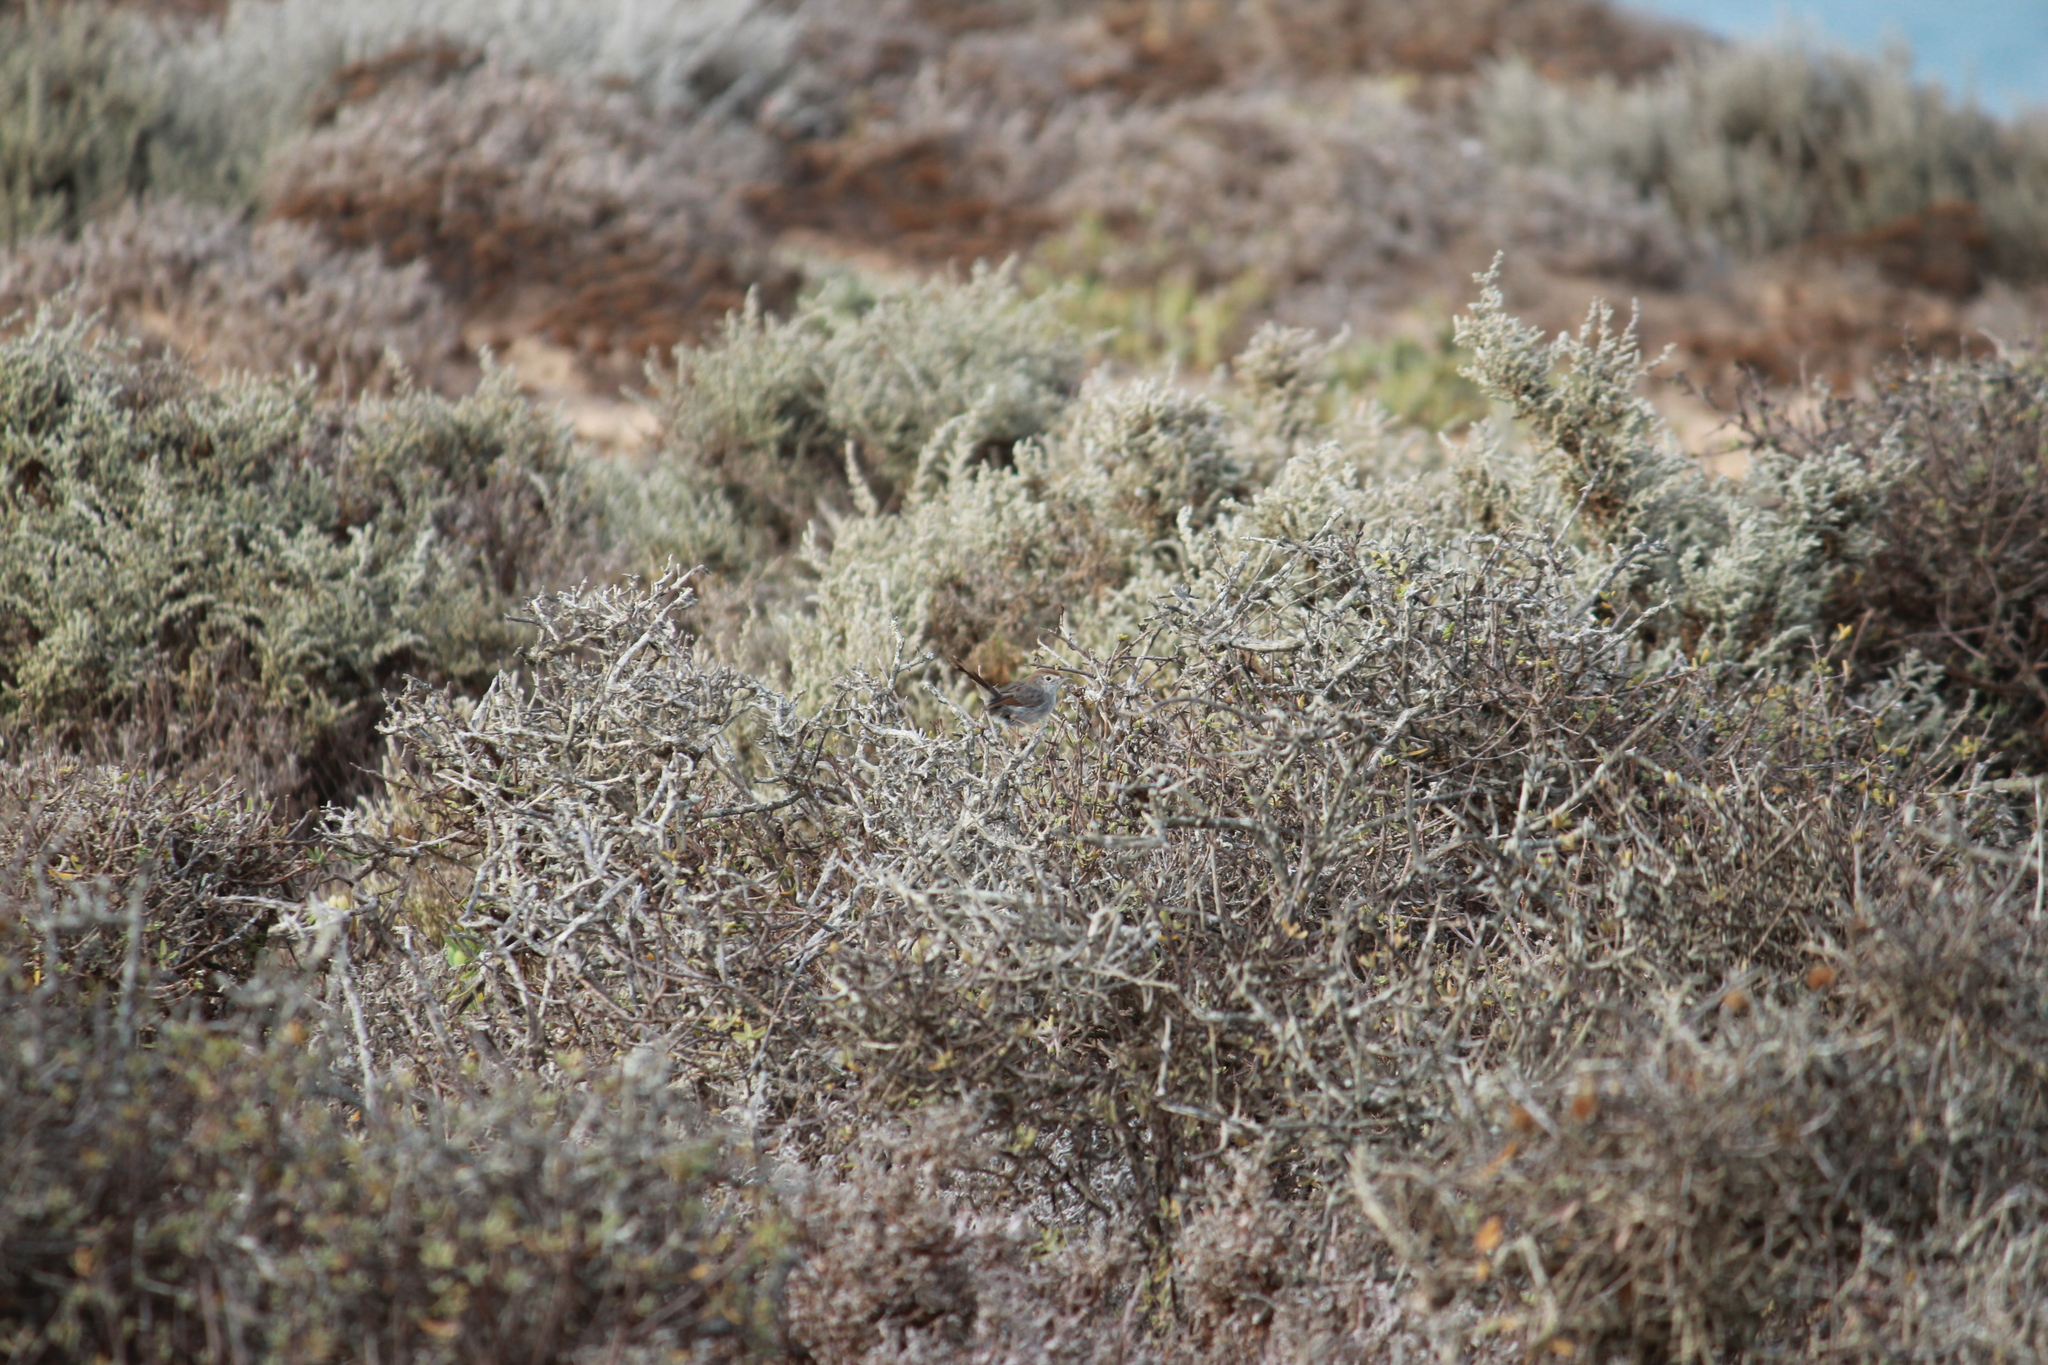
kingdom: Animalia
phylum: Chordata
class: Aves
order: Passeriformes
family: Cisticolidae
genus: Cisticola
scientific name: Cisticola subruficapilla
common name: Grey-backed cisticola
